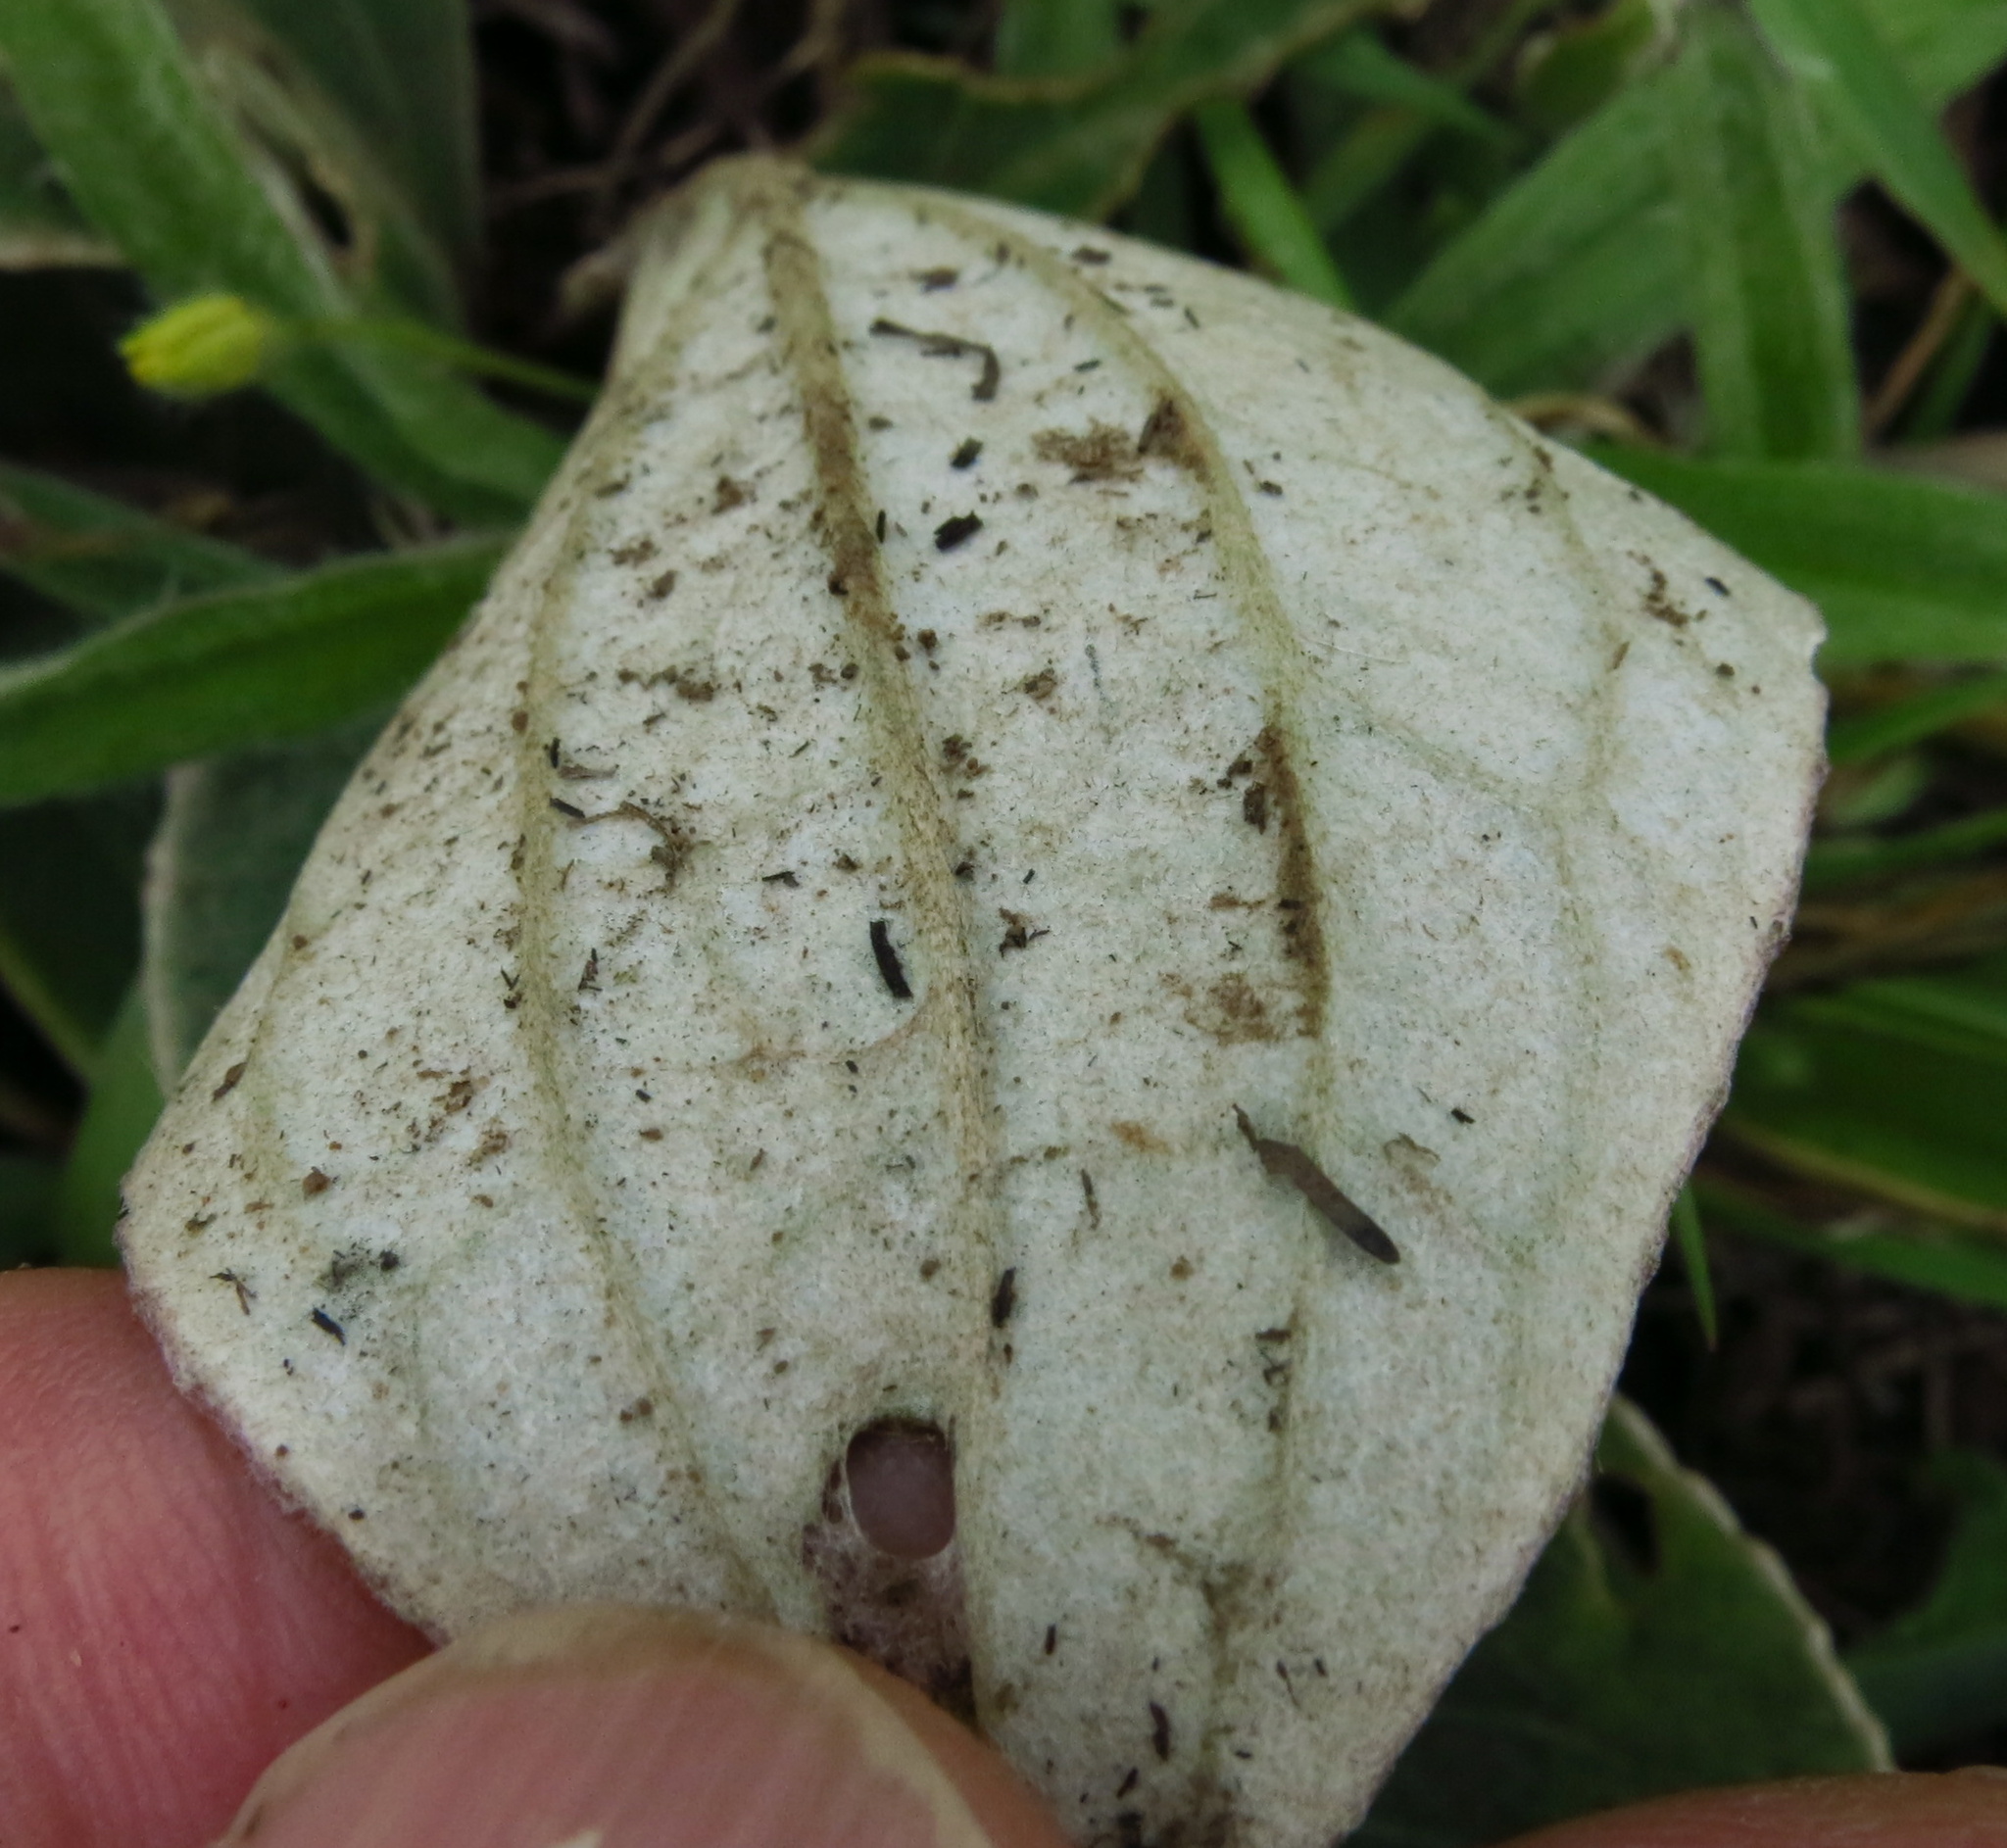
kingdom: Plantae
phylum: Tracheophyta
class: Magnoliopsida
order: Asterales
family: Asteraceae
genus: Haplocarpha
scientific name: Haplocarpha scaposa
